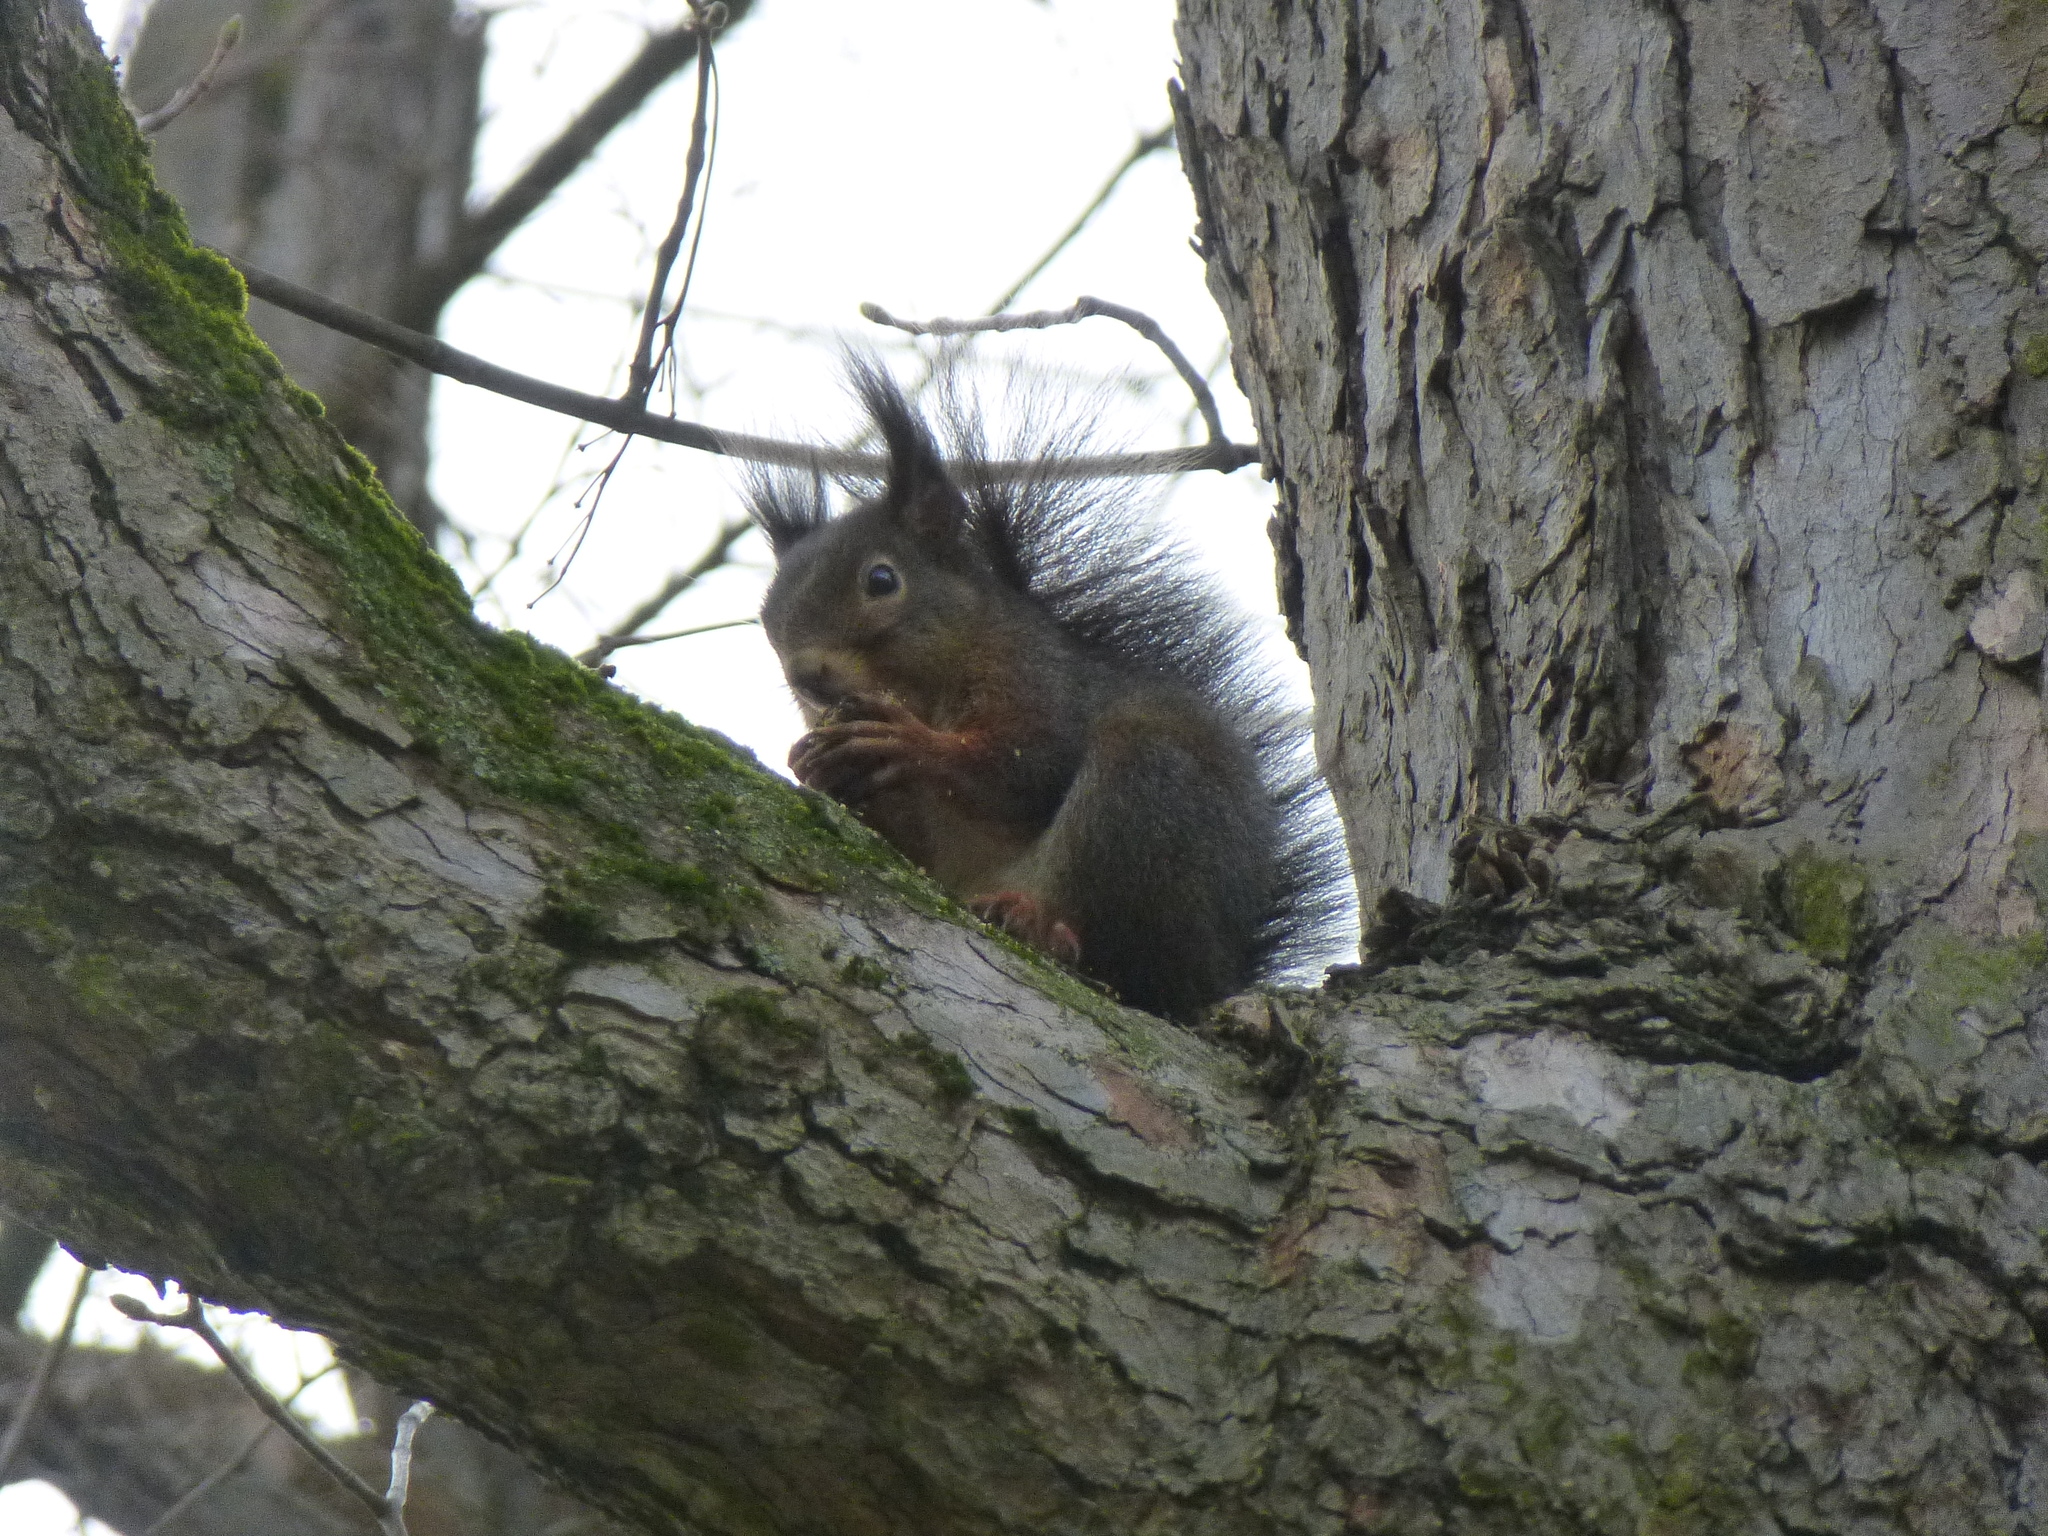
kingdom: Animalia
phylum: Chordata
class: Mammalia
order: Rodentia
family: Sciuridae
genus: Sciurus
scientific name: Sciurus vulgaris
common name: Eurasian red squirrel
